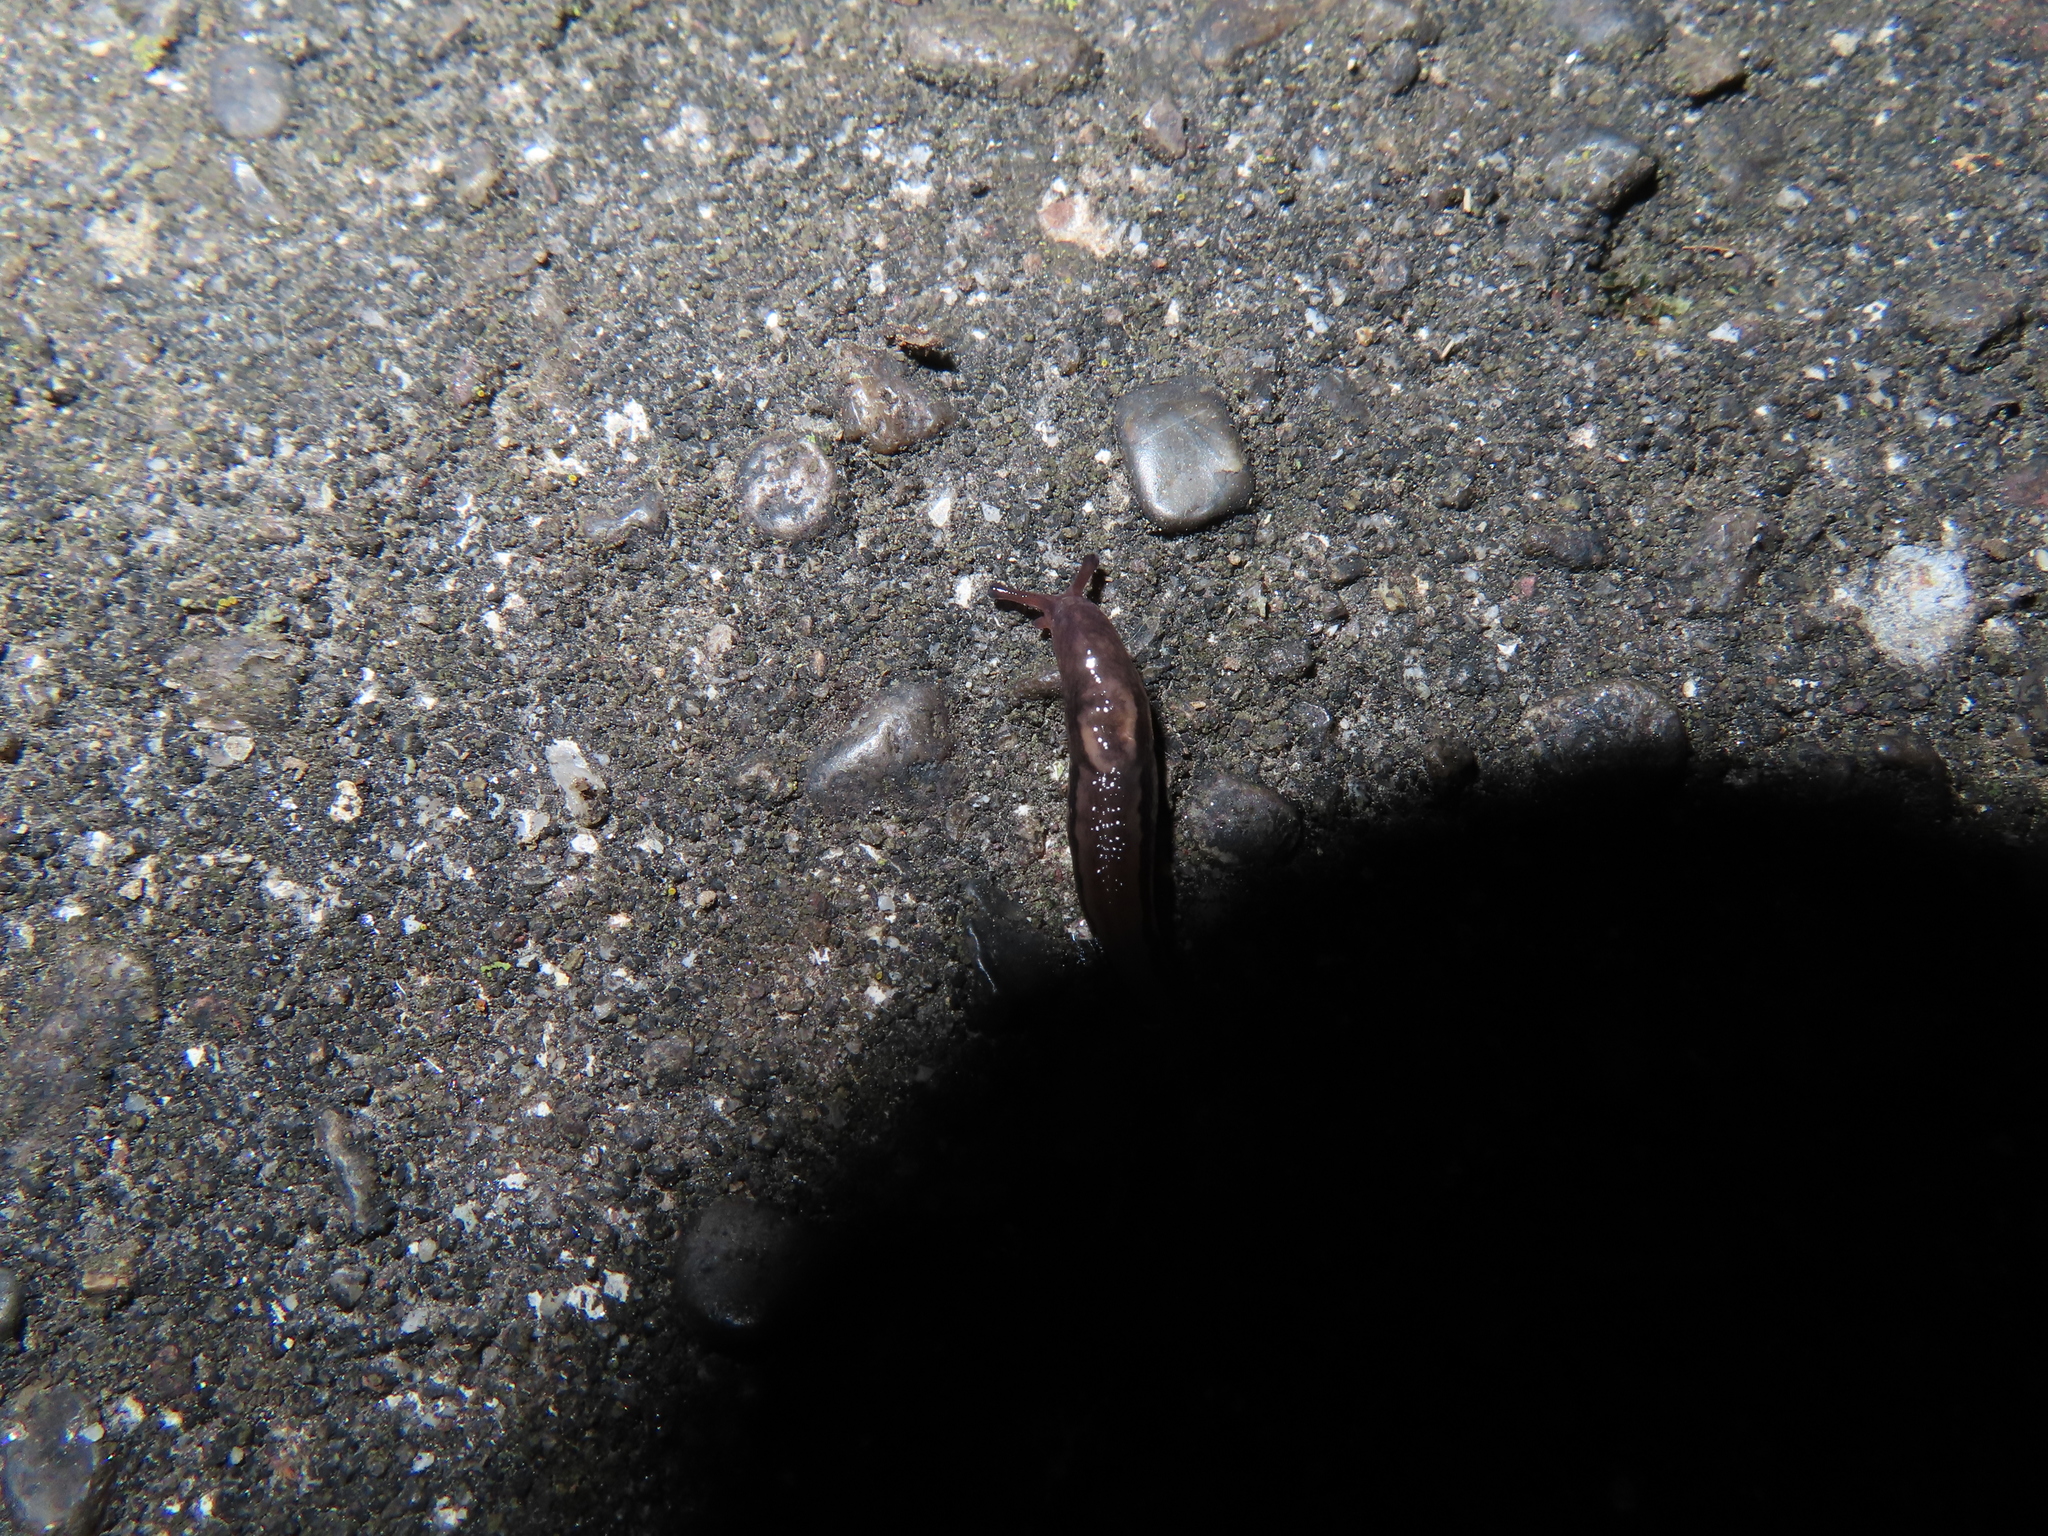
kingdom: Animalia
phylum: Mollusca
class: Gastropoda
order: Stylommatophora
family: Limacidae
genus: Limax
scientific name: Limax maximus
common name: Great grey slug
